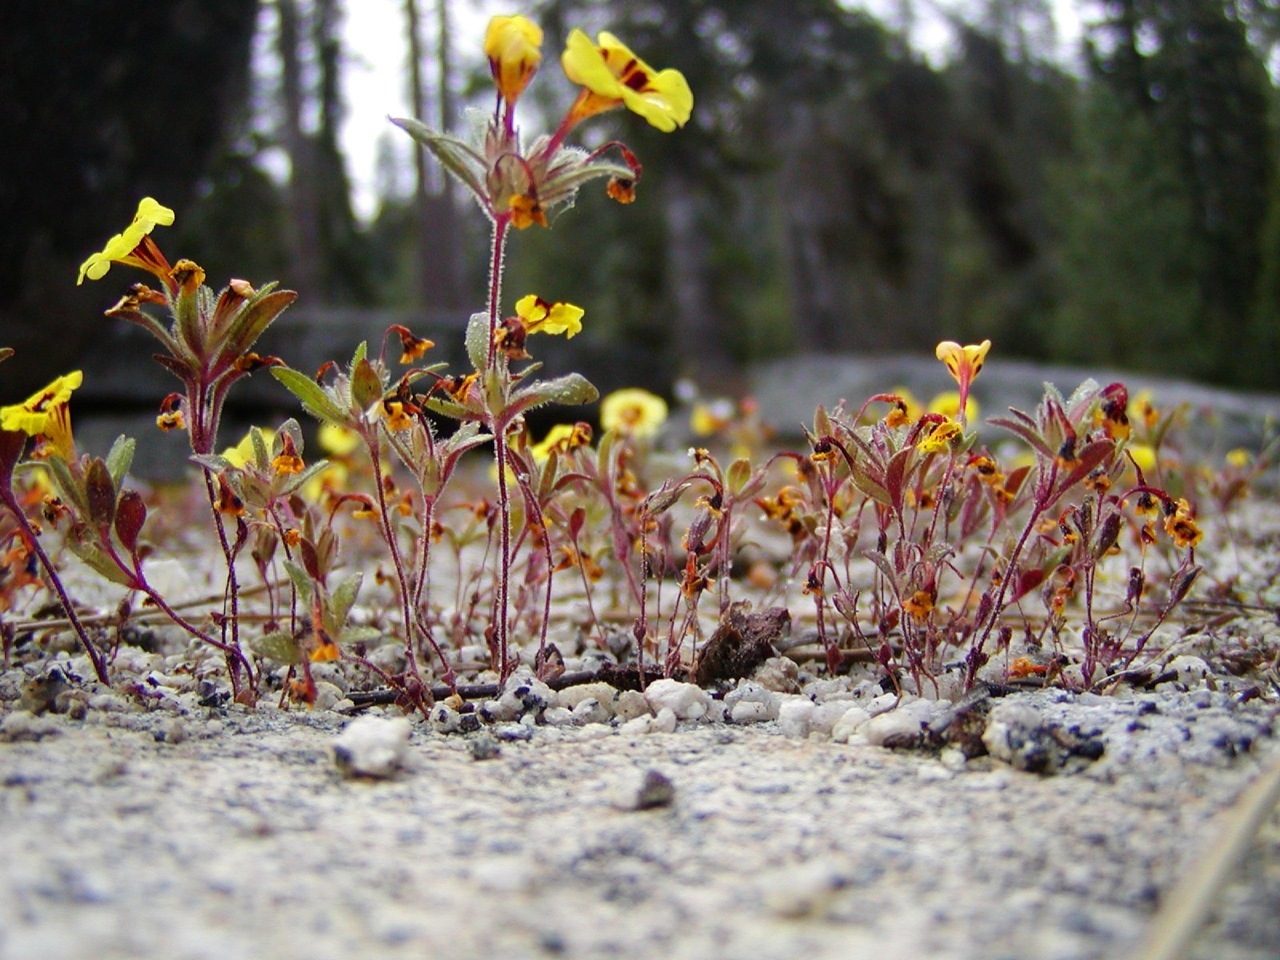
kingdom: Plantae
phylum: Tracheophyta
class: Magnoliopsida
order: Lamiales
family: Phrymaceae
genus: Diplacus
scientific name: Diplacus bicolor
